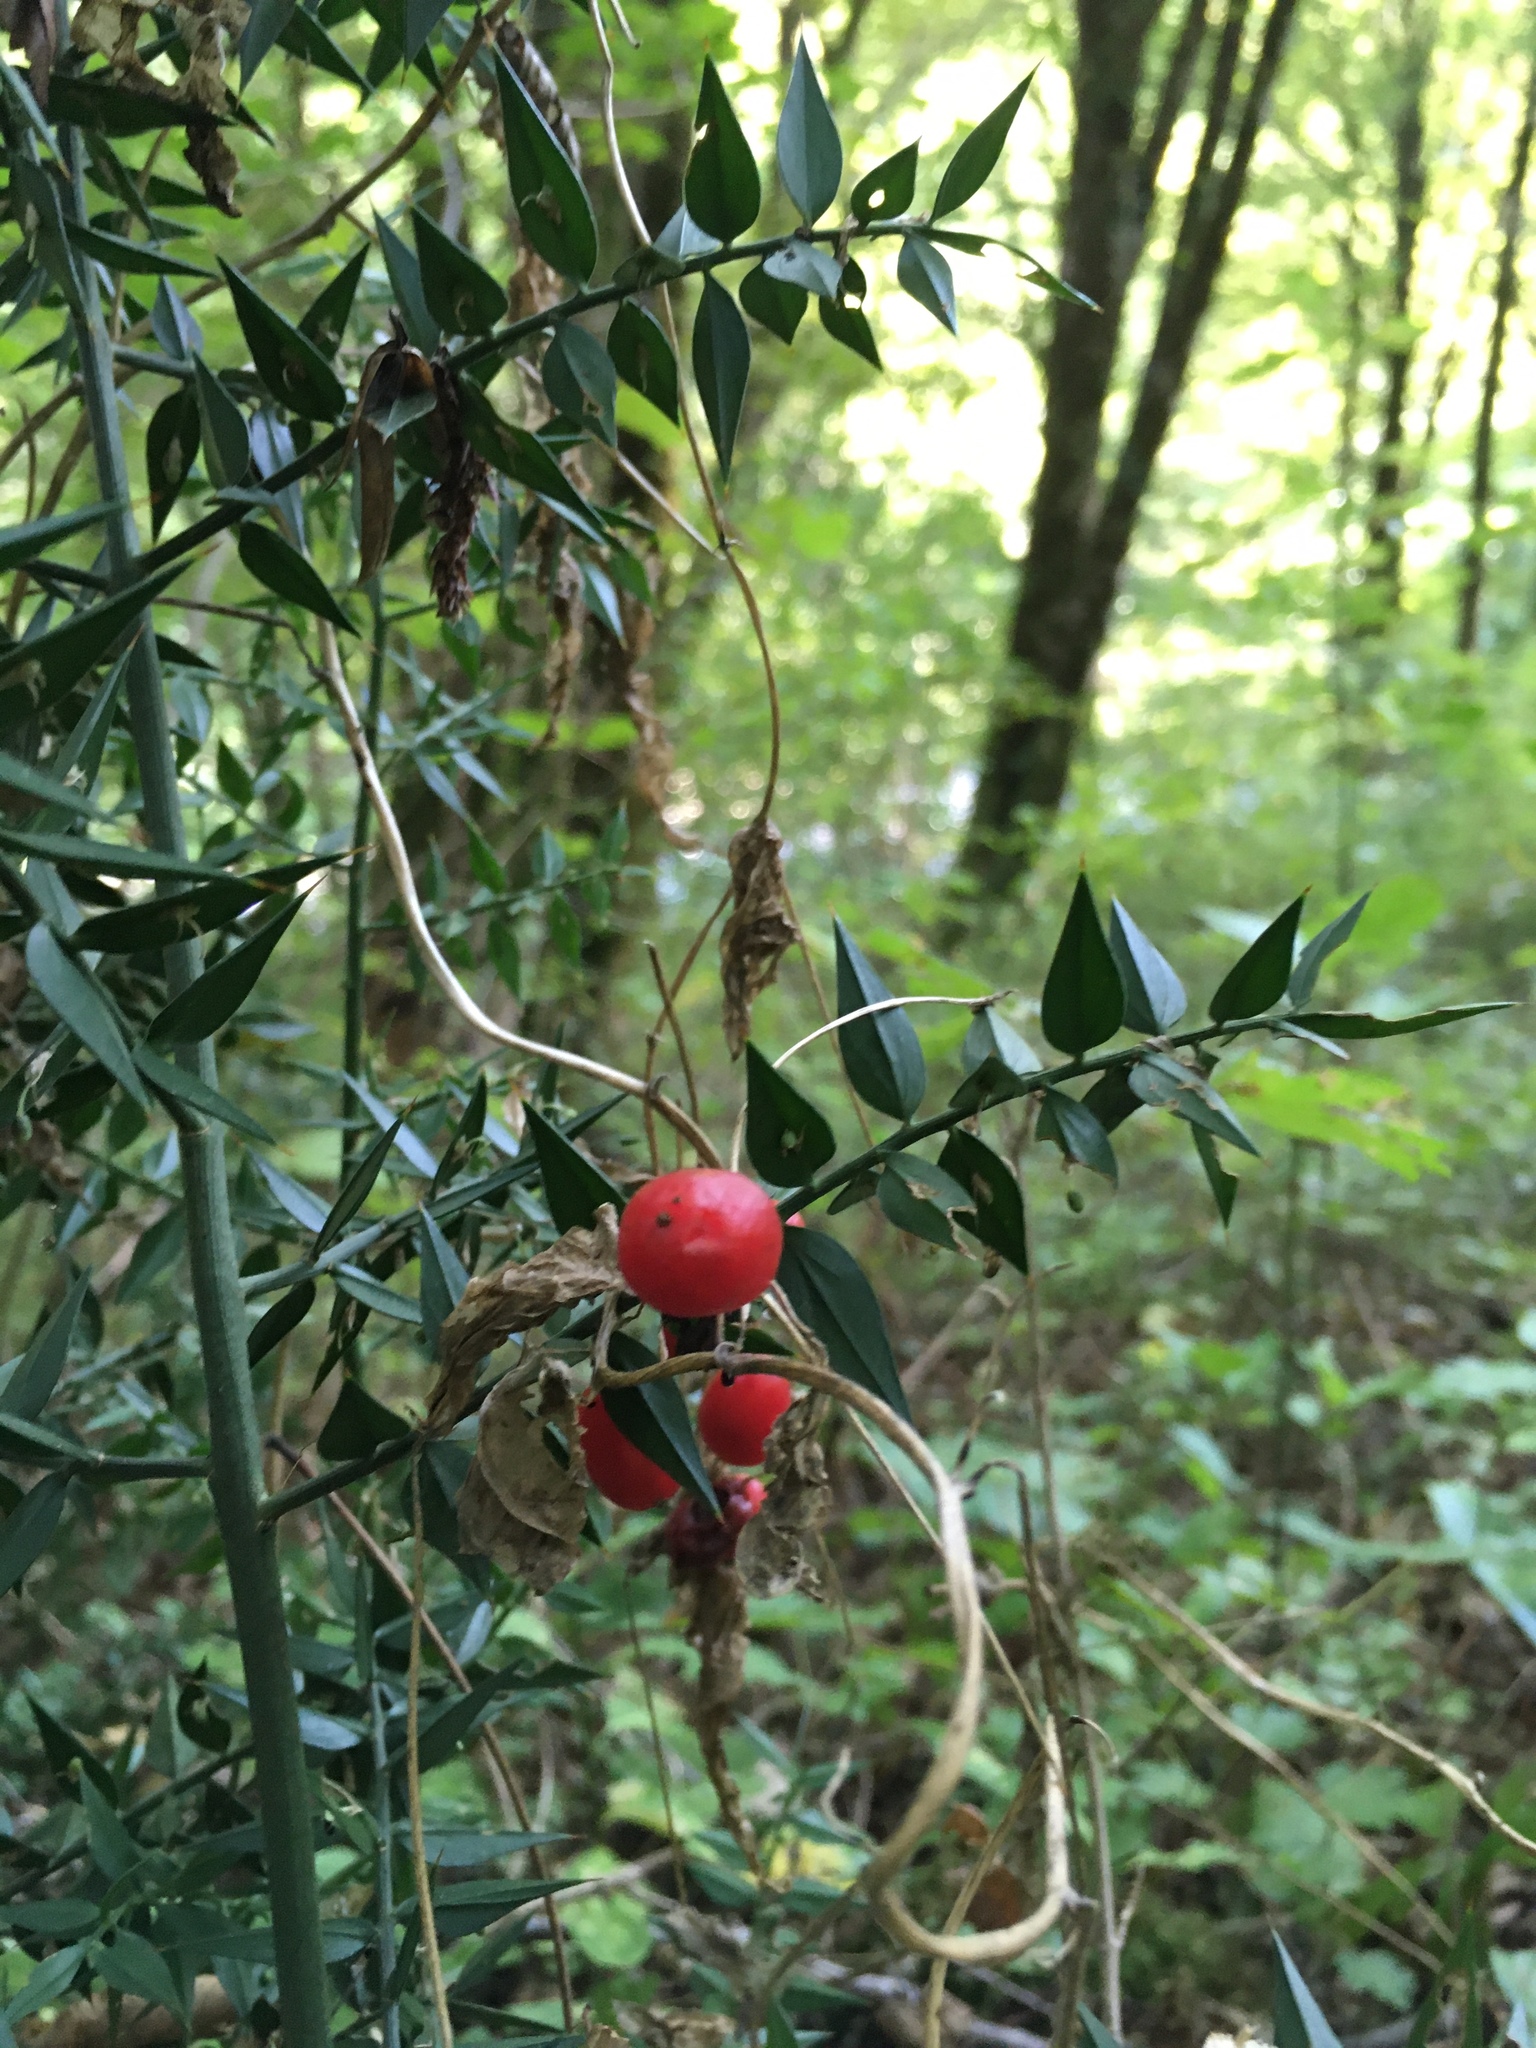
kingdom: Plantae
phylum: Tracheophyta
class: Liliopsida
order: Asparagales
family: Asparagaceae
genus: Ruscus
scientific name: Ruscus aculeatus
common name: Butcher's-broom
